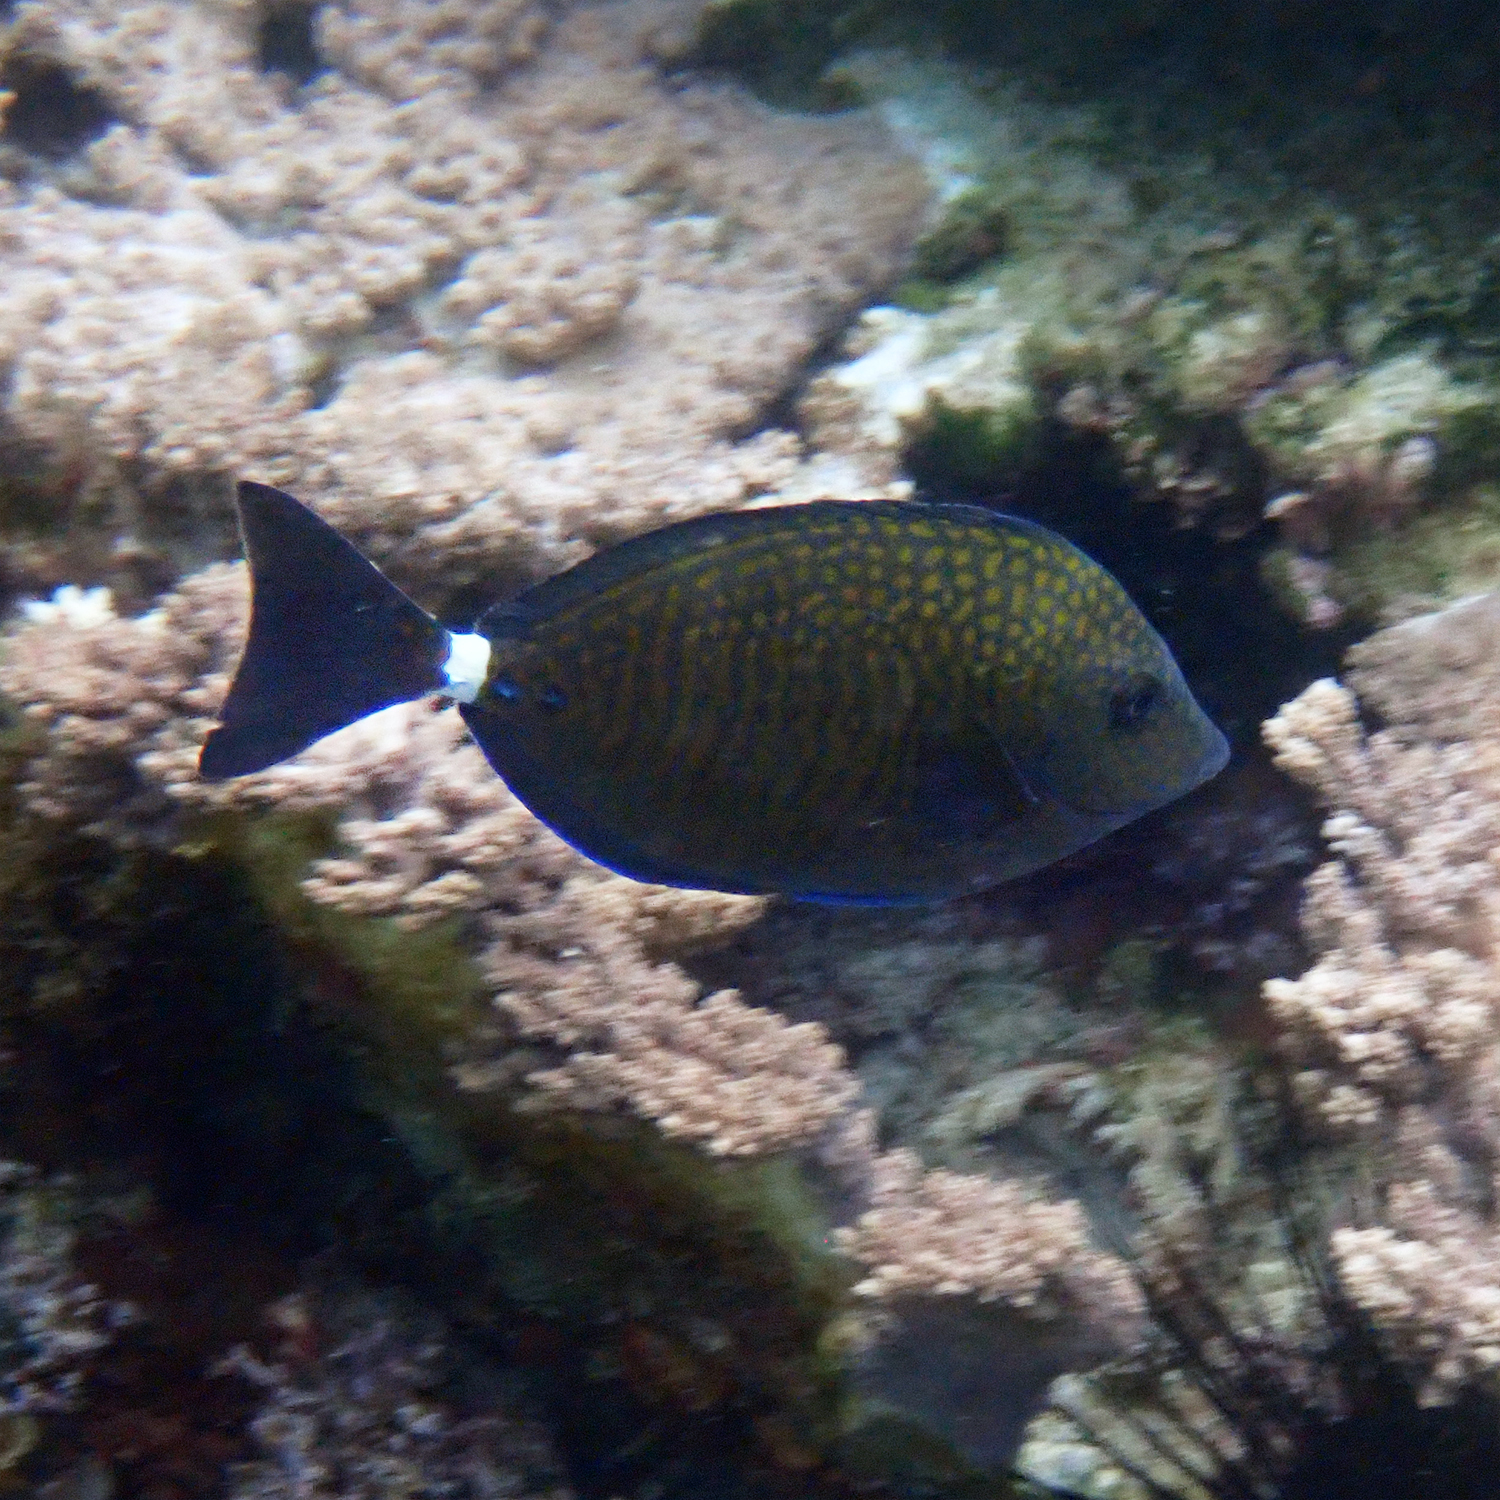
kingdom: Animalia
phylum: Chordata
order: Perciformes
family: Acanthuridae
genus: Prionurus
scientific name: Prionurus maculatus
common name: Yellowspotted sawtail
